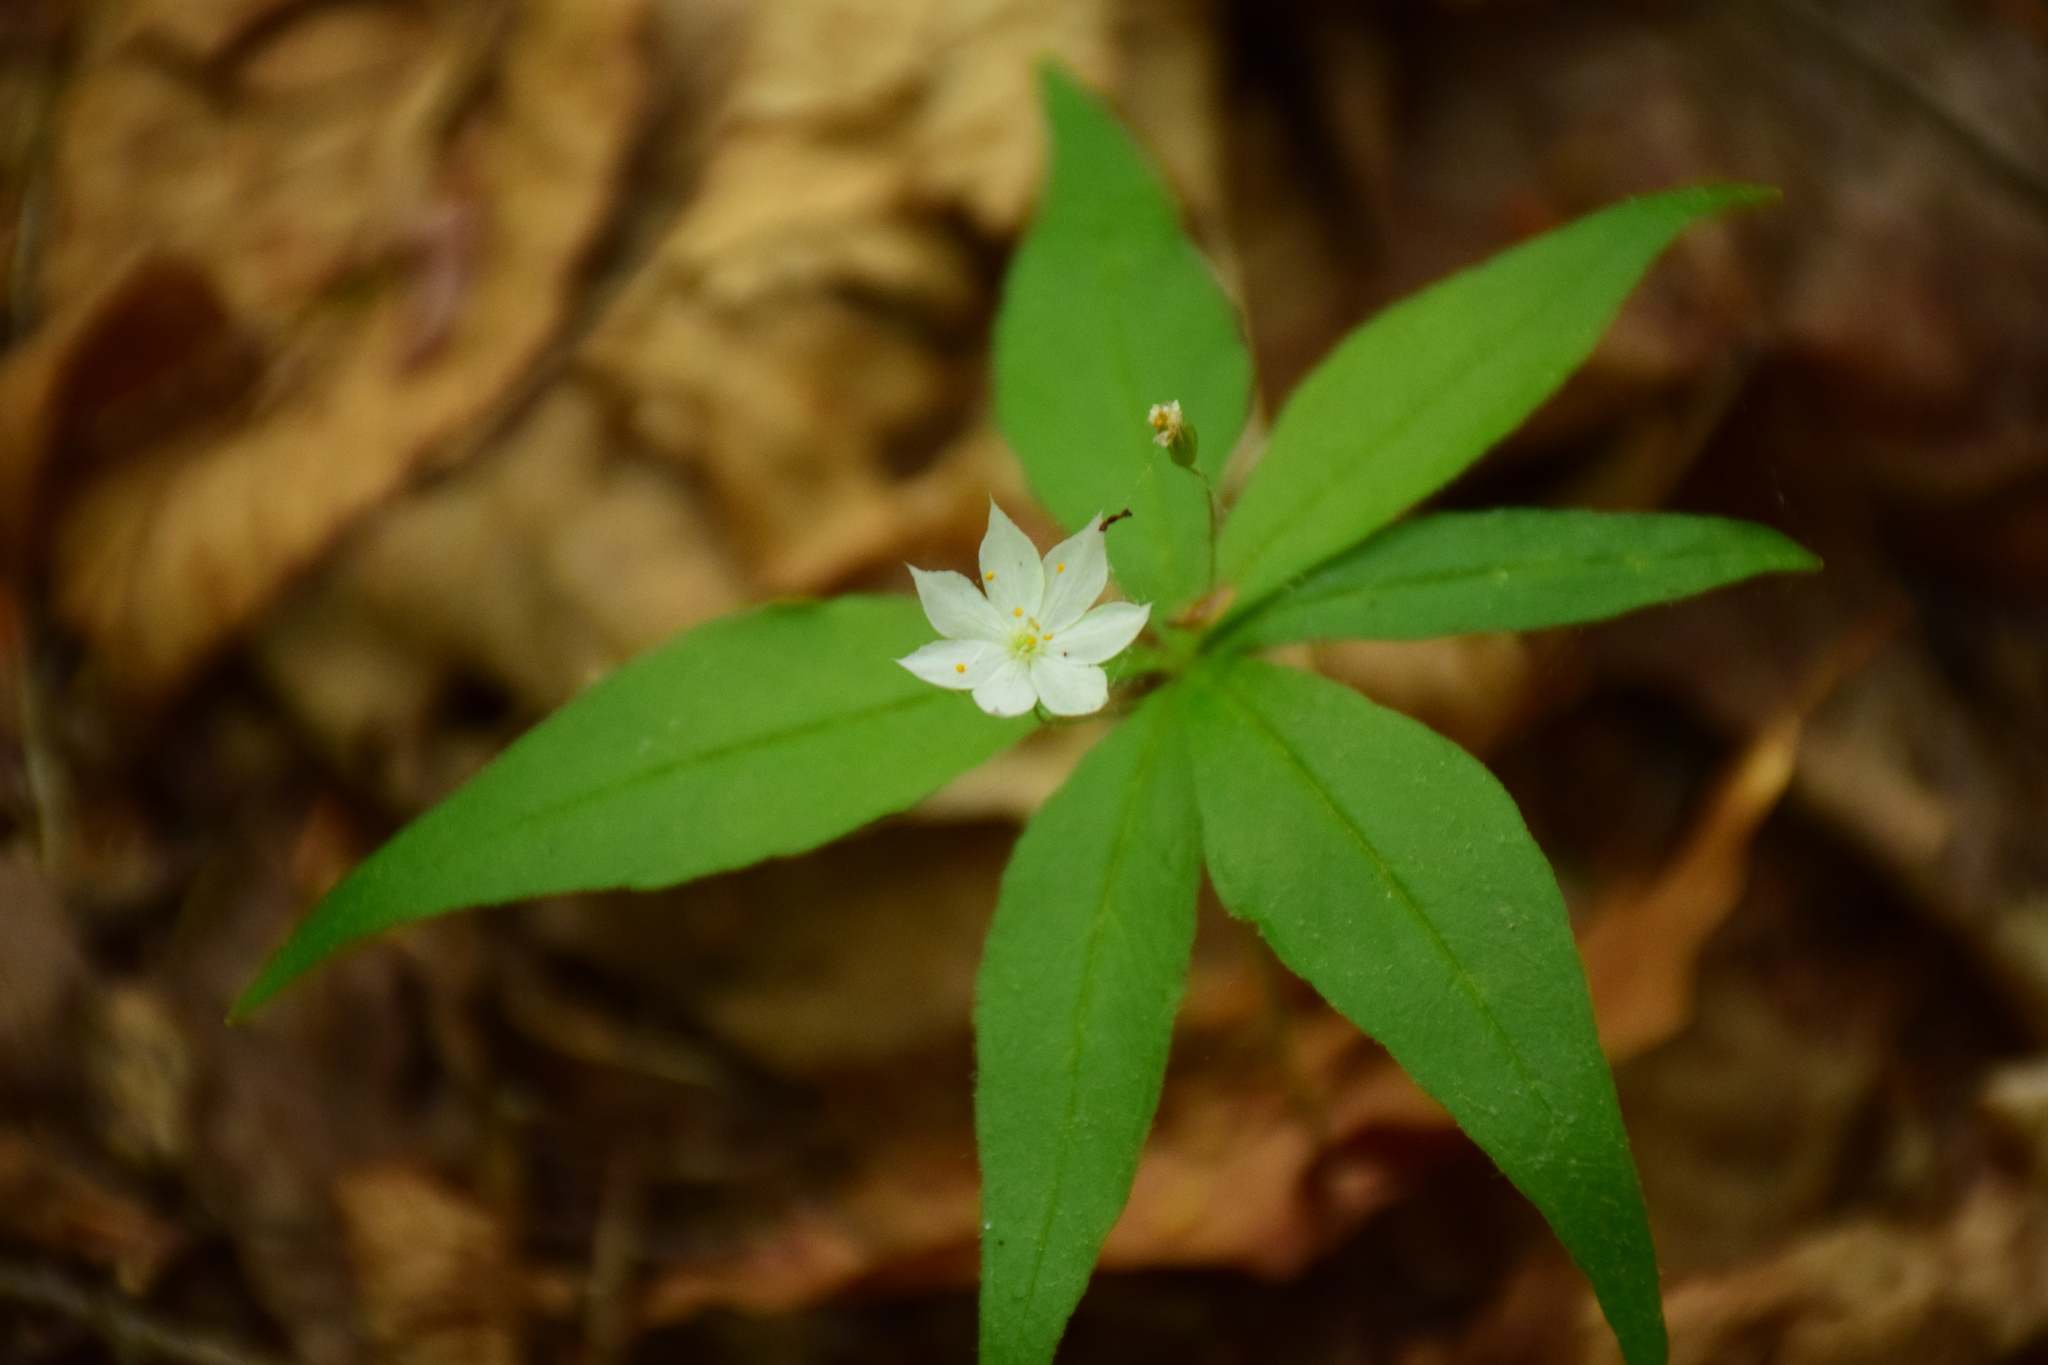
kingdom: Plantae
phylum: Tracheophyta
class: Magnoliopsida
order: Ericales
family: Primulaceae
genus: Lysimachia
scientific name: Lysimachia borealis
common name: American starflower
